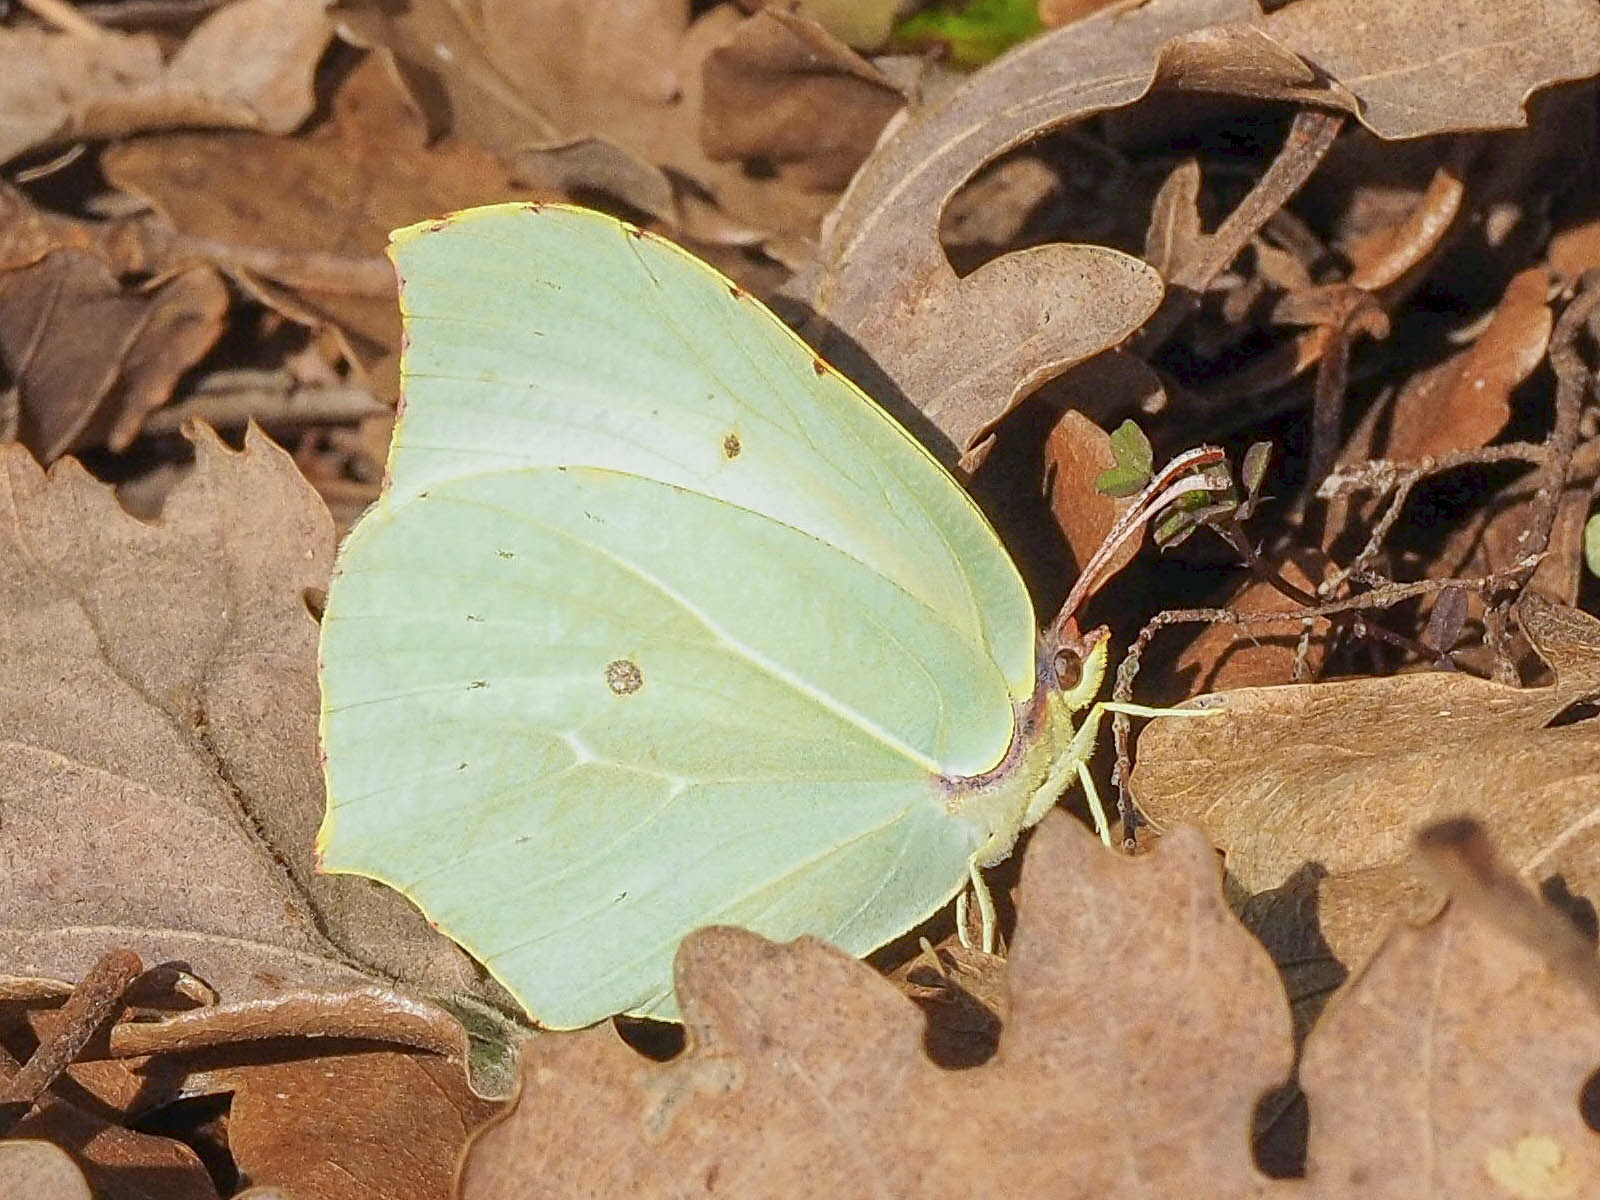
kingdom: Animalia
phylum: Arthropoda
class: Insecta
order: Lepidoptera
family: Pieridae
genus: Gonepteryx
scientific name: Gonepteryx rhamni
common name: Brimstone
